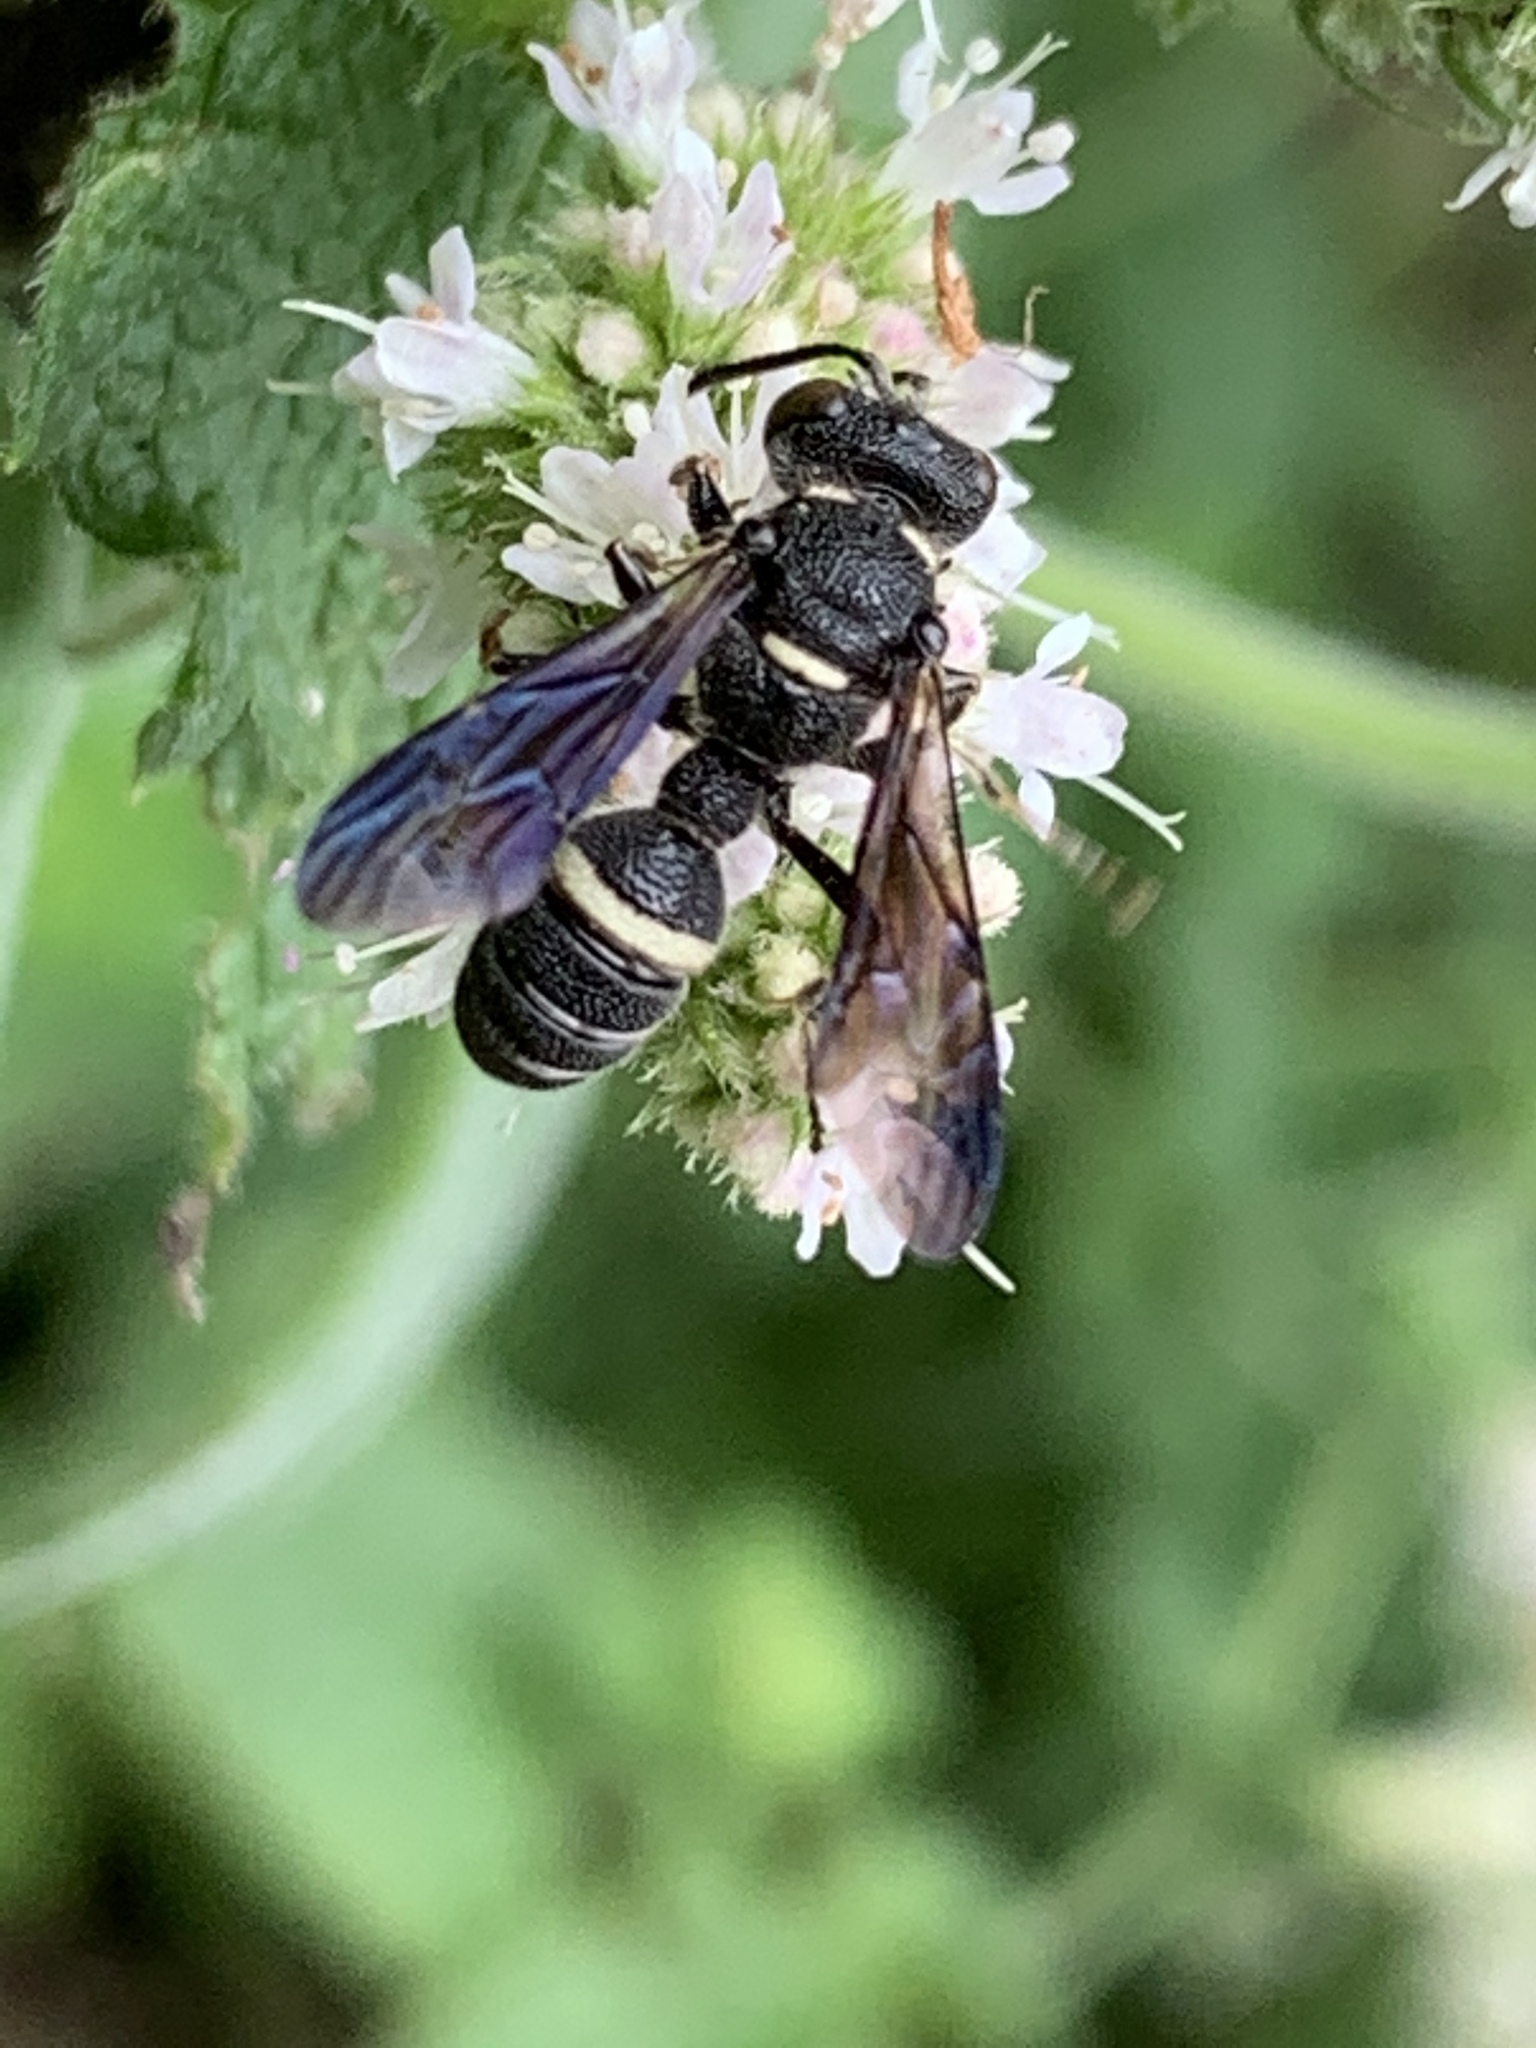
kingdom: Animalia
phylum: Arthropoda
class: Insecta
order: Hymenoptera
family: Crabronidae
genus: Cerceris
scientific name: Cerceris fumipennis
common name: Smokey-winged beetle bandit wasp
